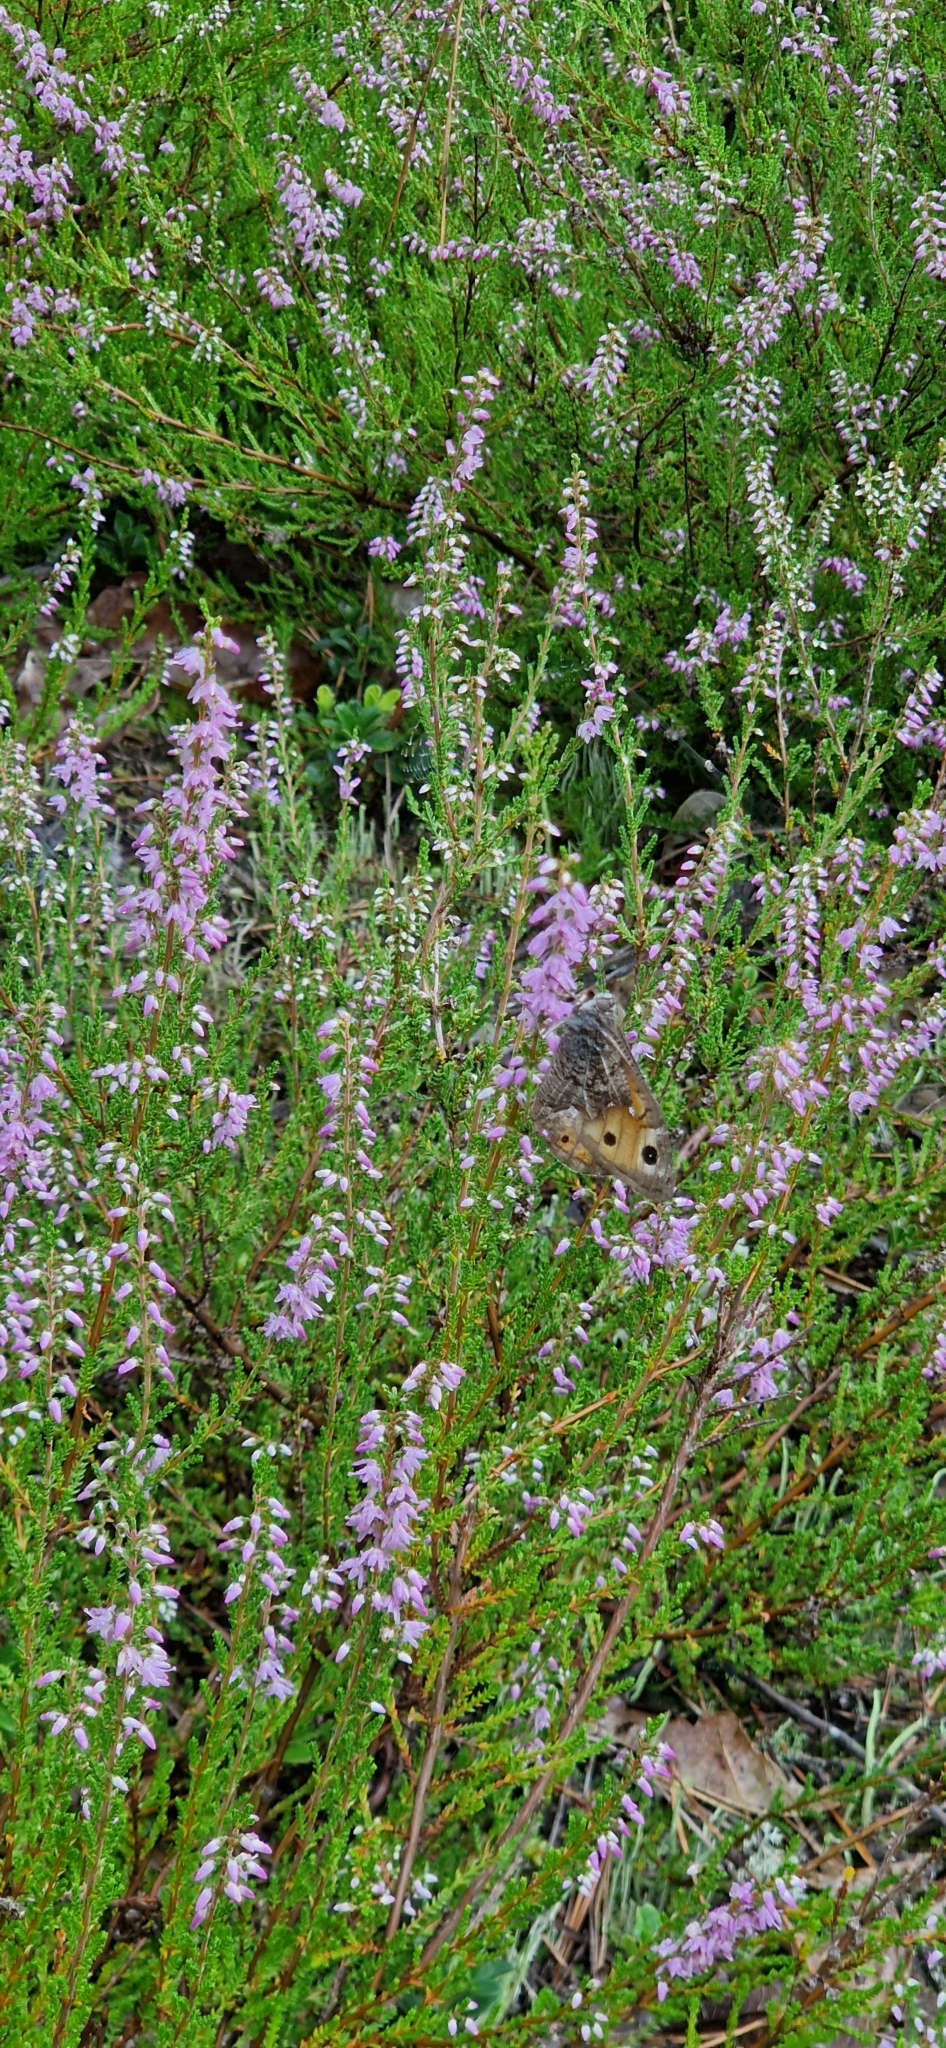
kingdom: Animalia
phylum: Arthropoda
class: Insecta
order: Lepidoptera
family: Nymphalidae
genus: Hipparchia
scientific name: Hipparchia semele
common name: Grayling
